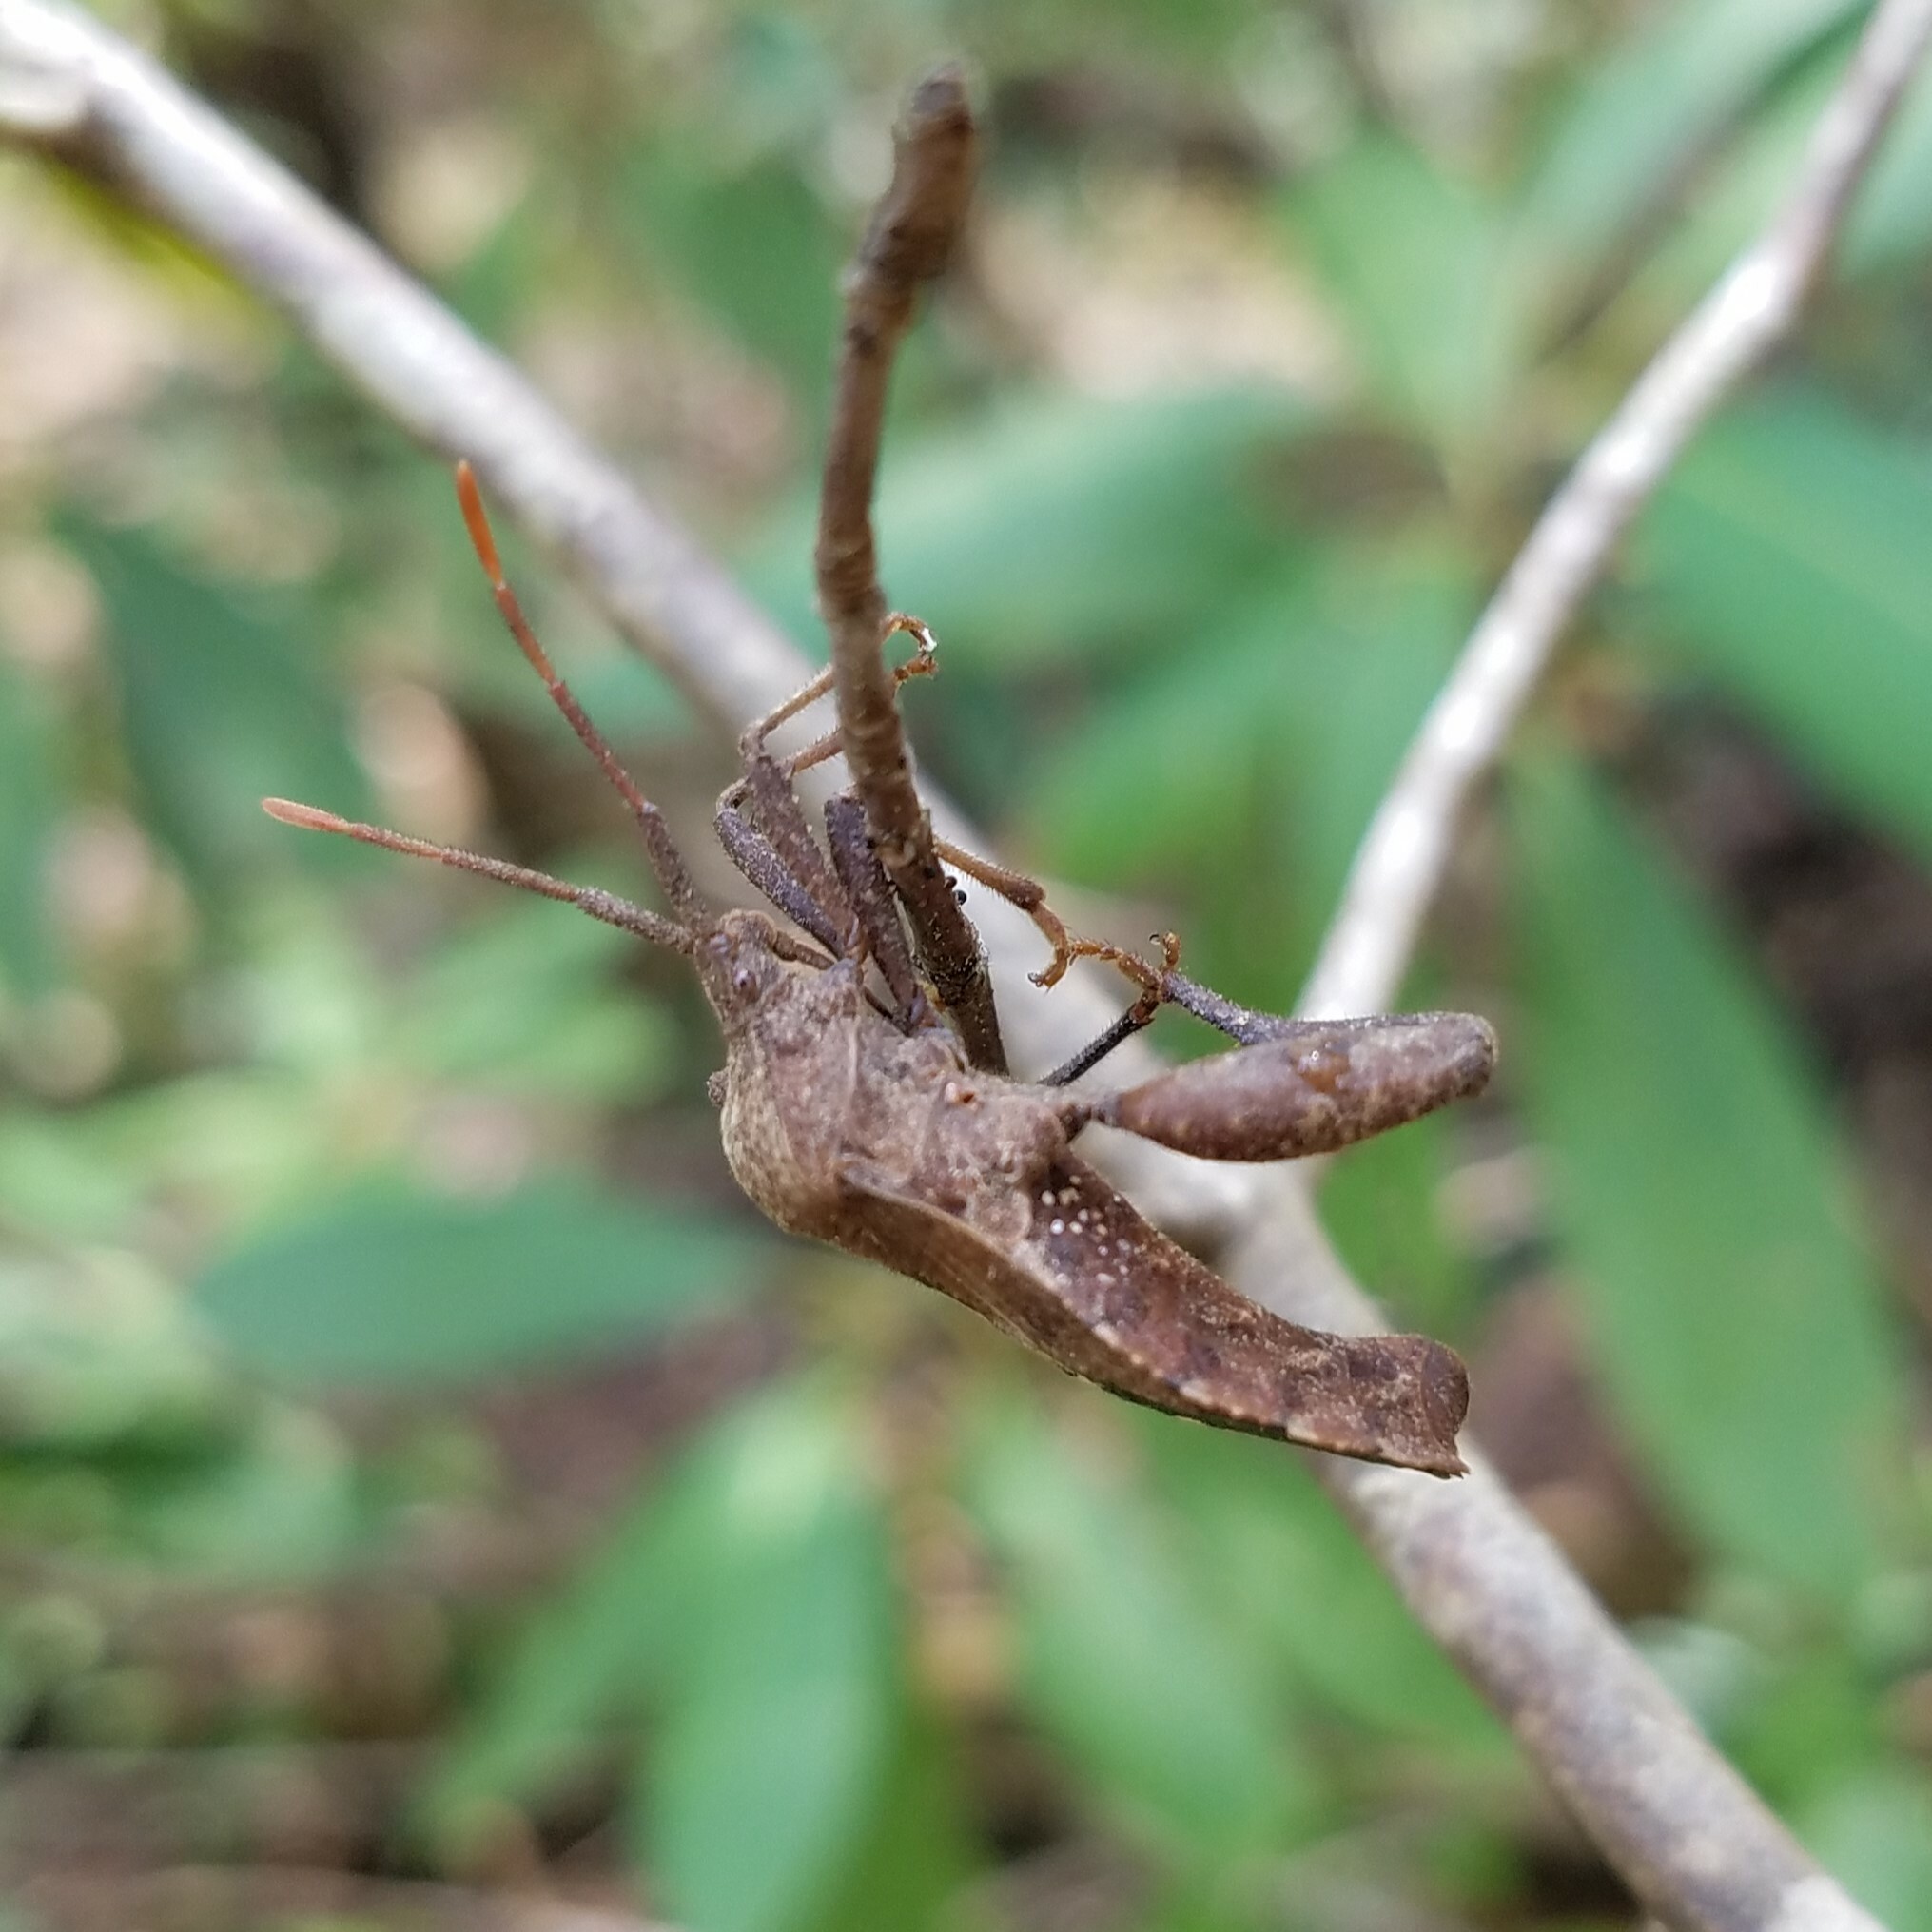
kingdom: Animalia
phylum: Arthropoda
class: Insecta
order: Hemiptera
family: Coreidae
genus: Piezogaster
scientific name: Piezogaster calcarator
